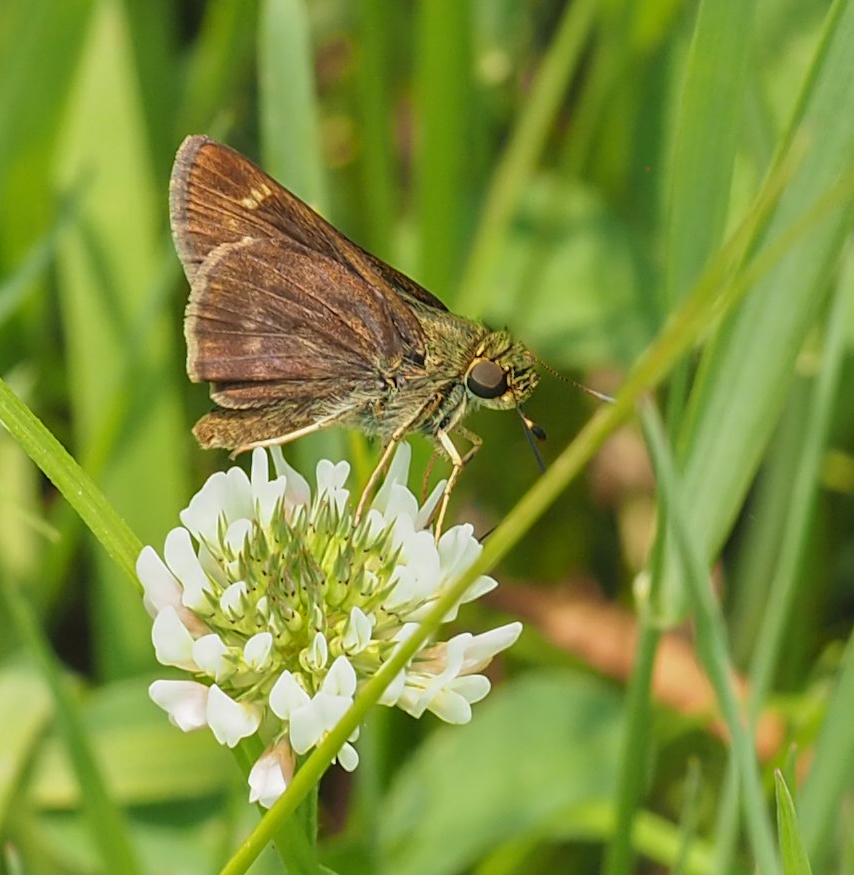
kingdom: Animalia
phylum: Arthropoda
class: Insecta
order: Lepidoptera
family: Hesperiidae
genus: Vernia
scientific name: Vernia verna
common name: Little glassywing
